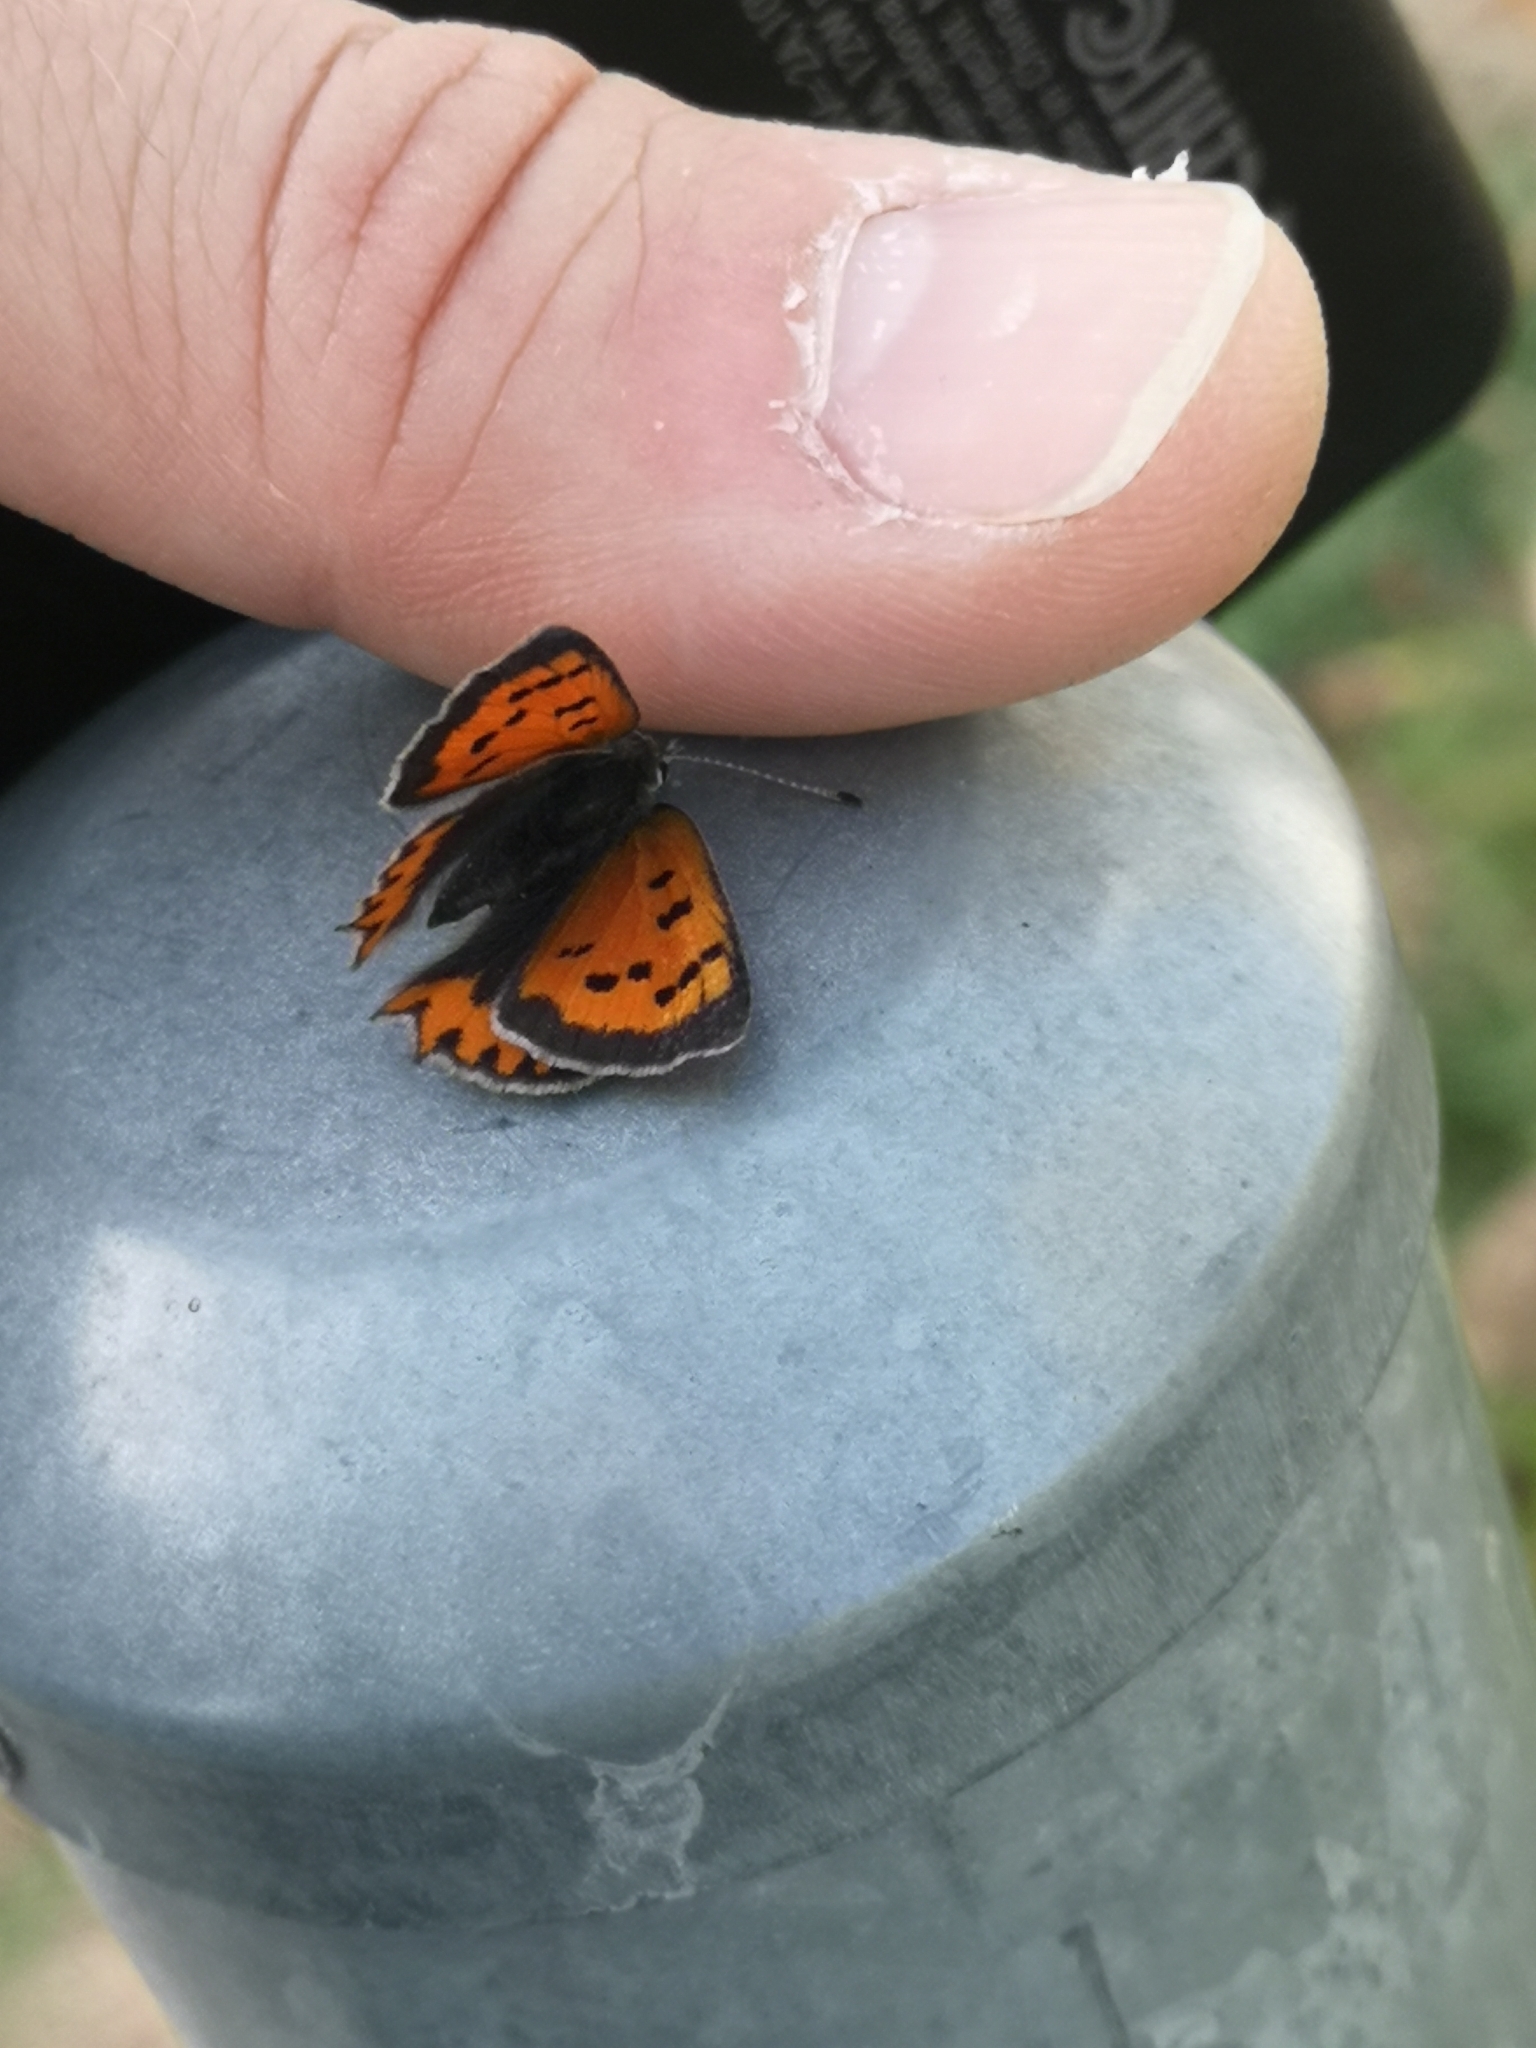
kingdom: Animalia
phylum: Arthropoda
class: Insecta
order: Lepidoptera
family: Lycaenidae
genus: Lycaena
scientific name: Lycaena phlaeas
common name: Small copper
